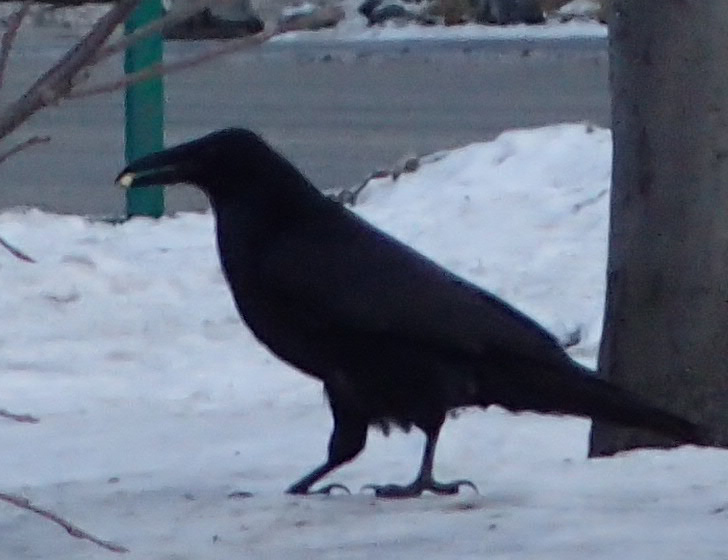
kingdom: Animalia
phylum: Chordata
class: Aves
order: Passeriformes
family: Corvidae
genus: Corvus
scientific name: Corvus corax
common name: Common raven
